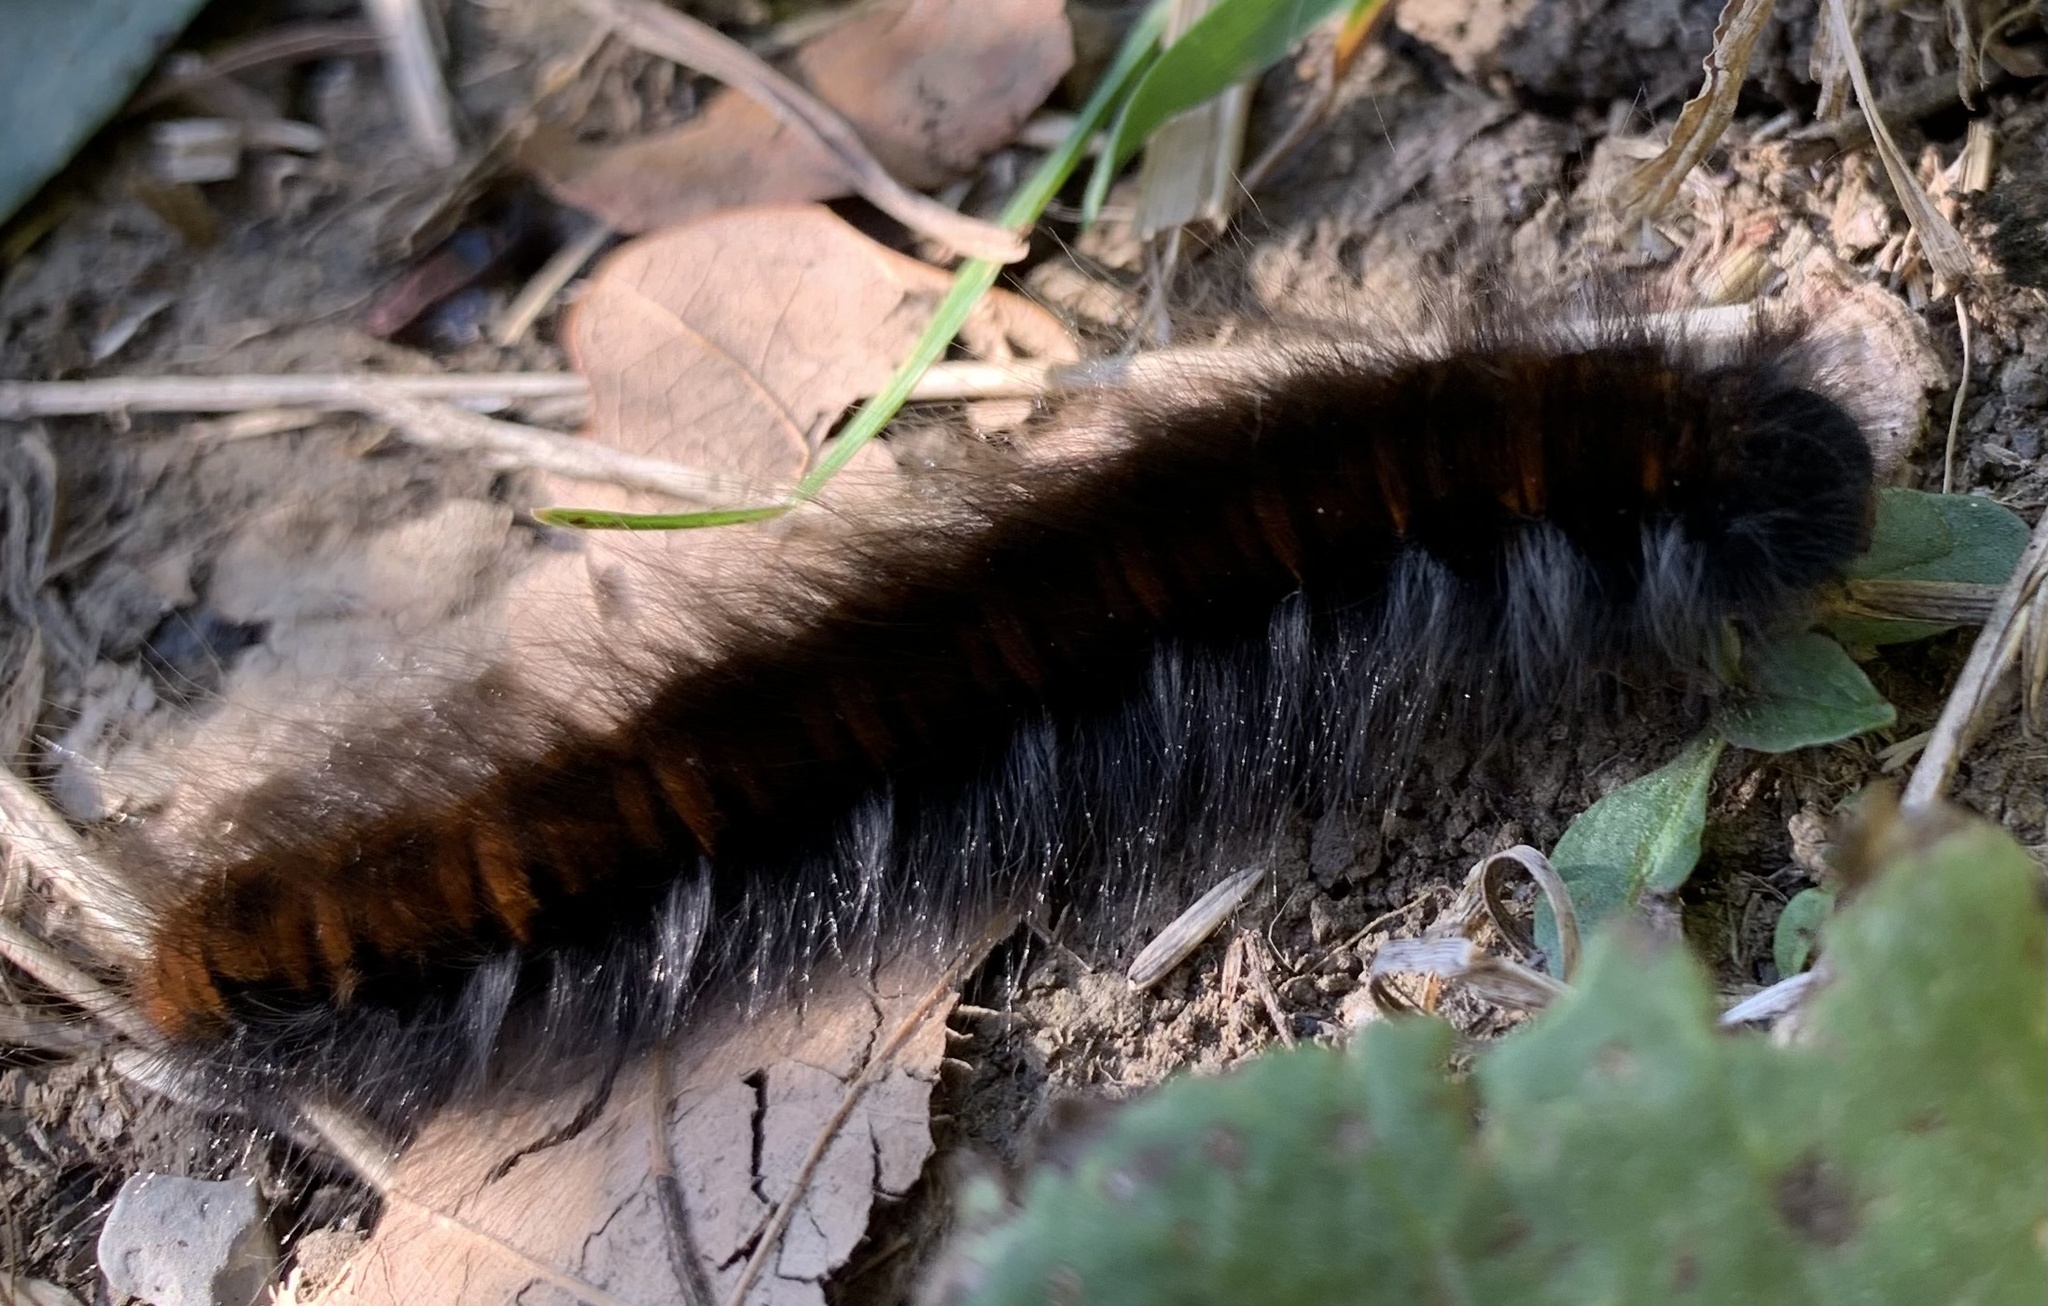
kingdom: Animalia
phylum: Arthropoda
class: Insecta
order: Lepidoptera
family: Lasiocampidae
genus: Macrothylacia
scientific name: Macrothylacia rubi
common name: Fox moth
